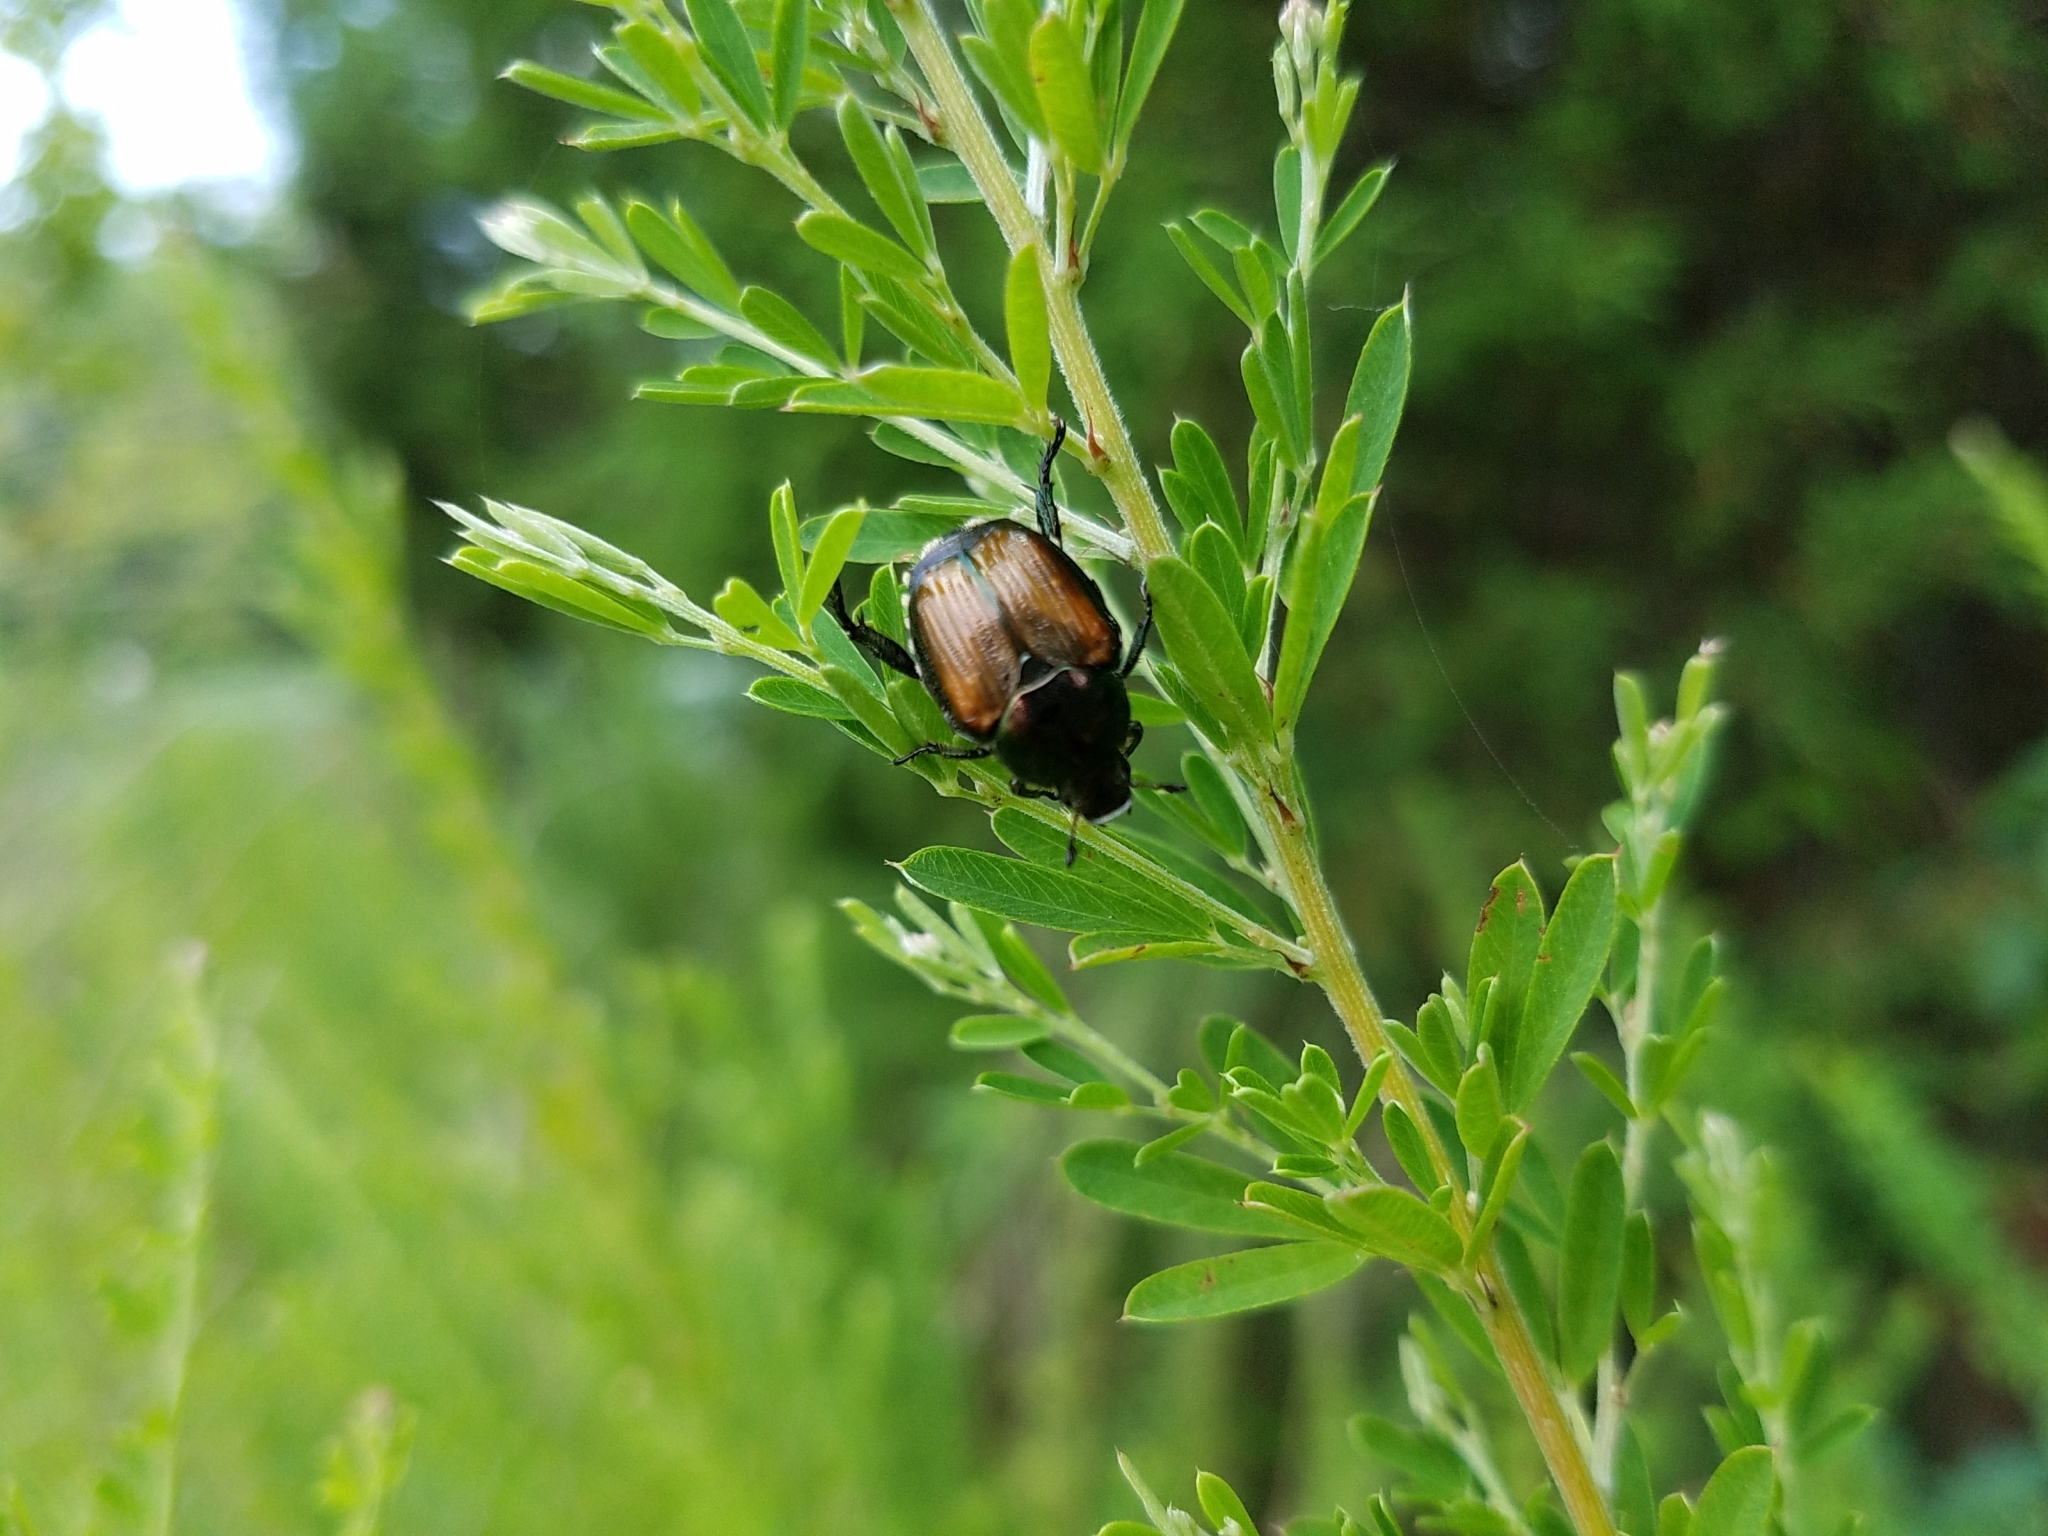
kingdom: Animalia
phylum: Arthropoda
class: Insecta
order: Coleoptera
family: Scarabaeidae
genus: Popillia
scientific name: Popillia japonica
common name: Japanese beetle
